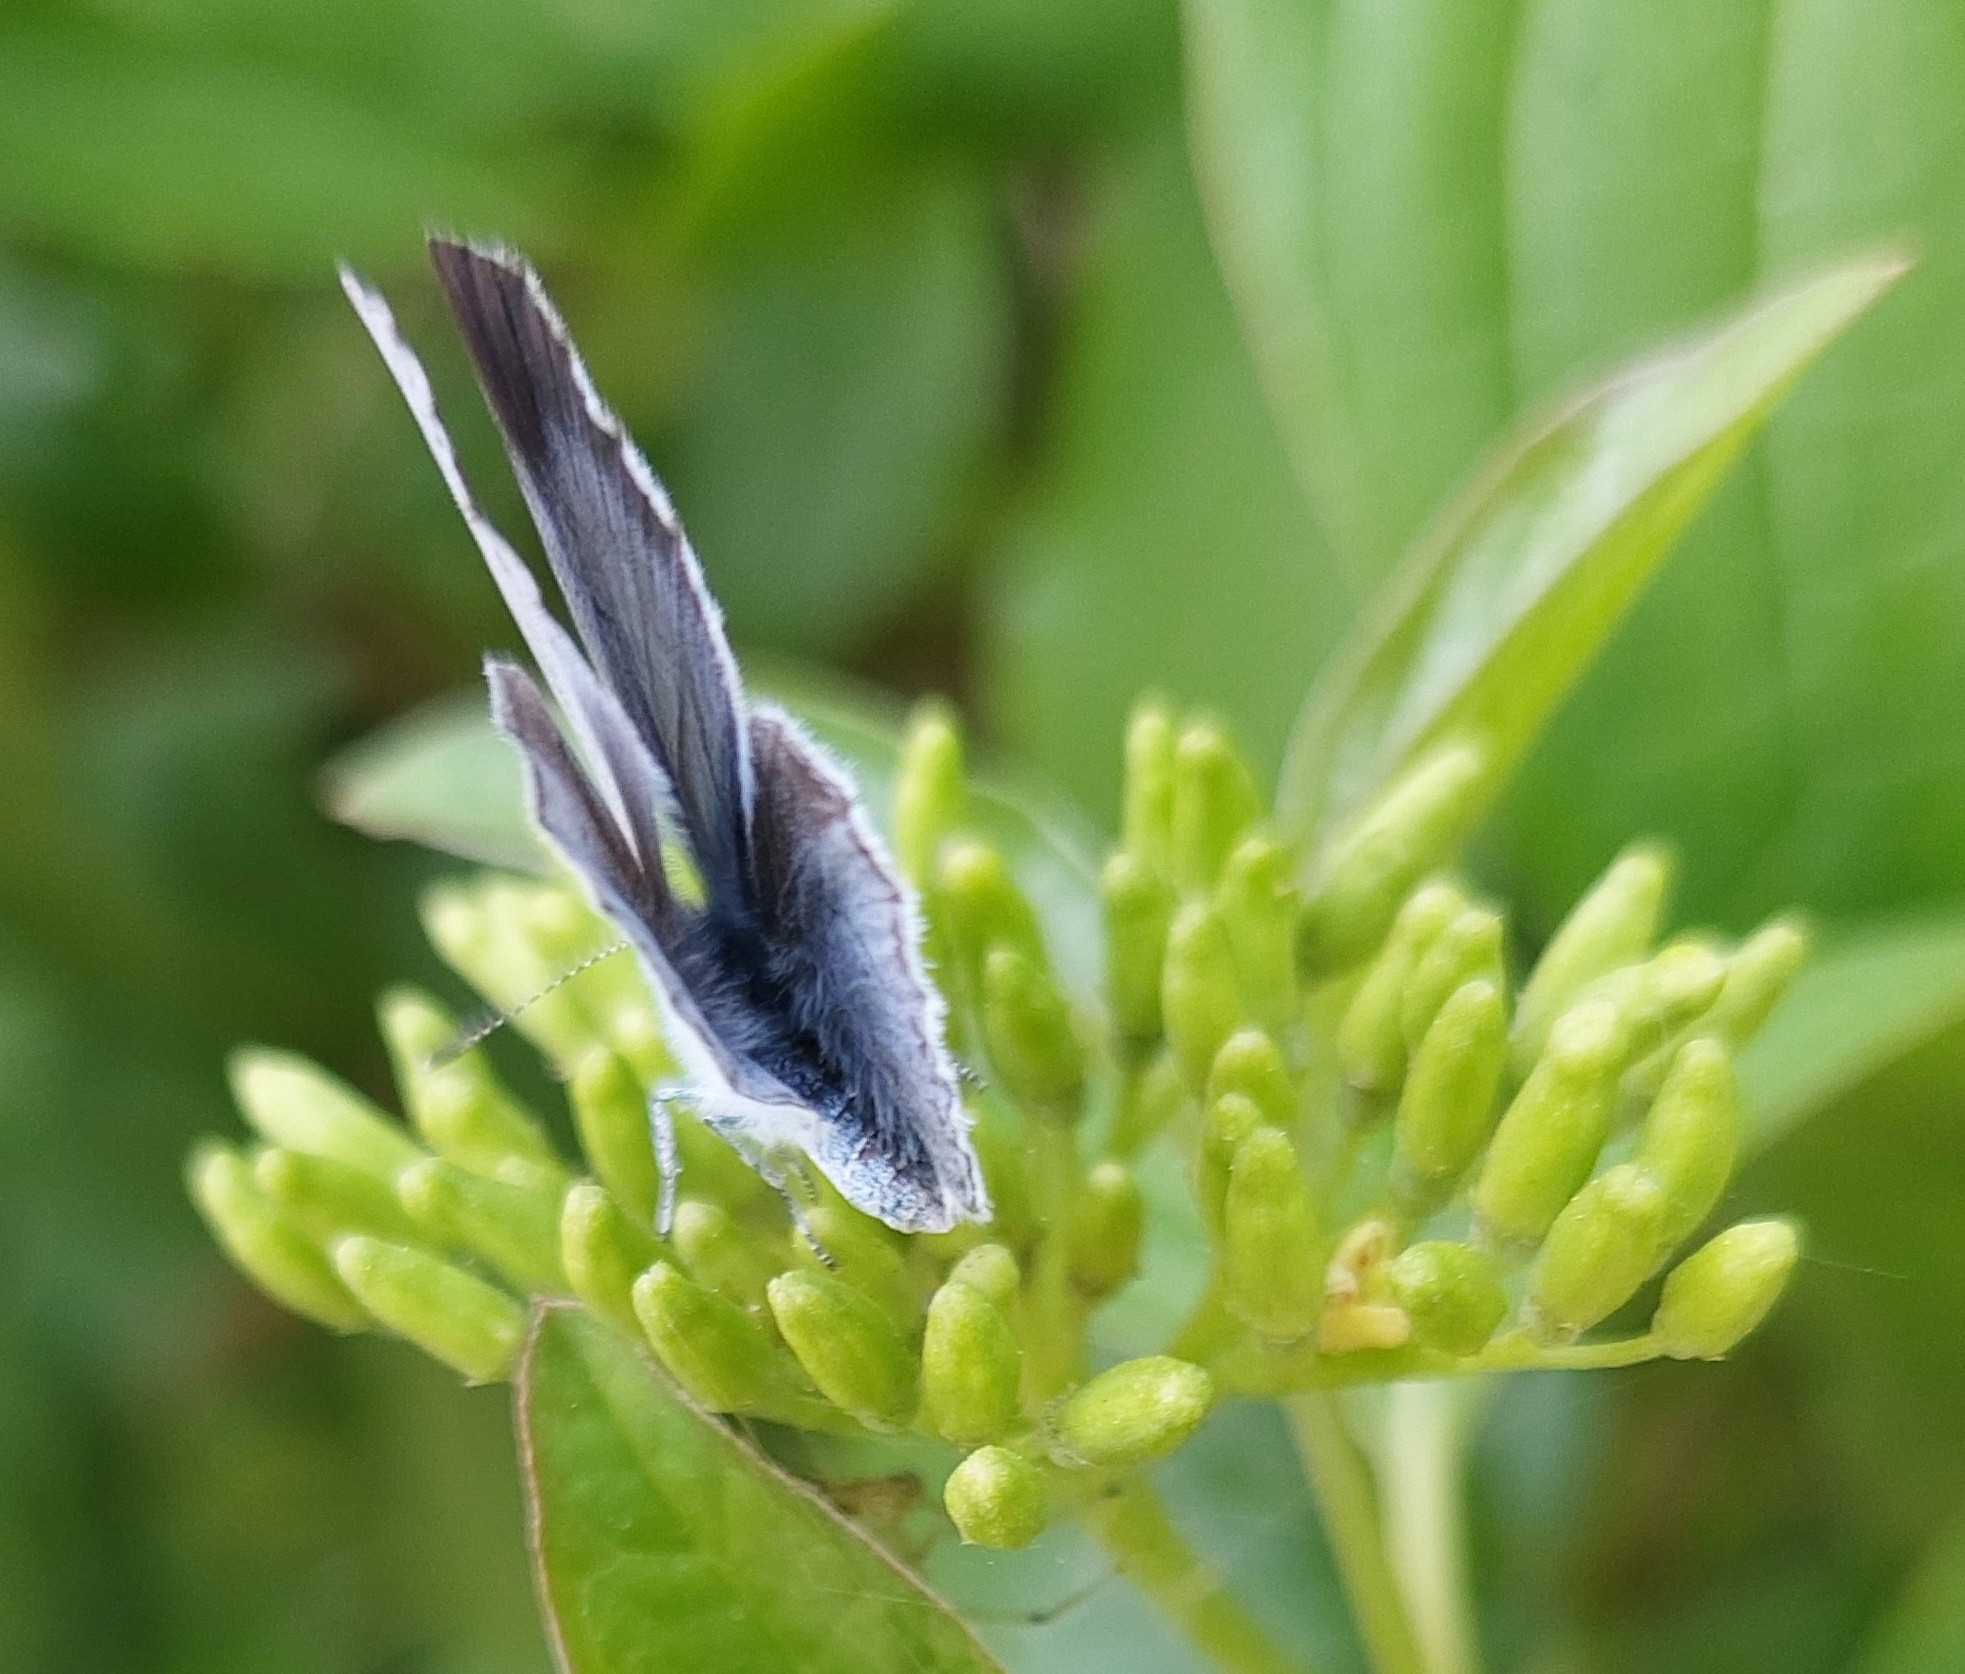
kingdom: Animalia
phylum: Arthropoda
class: Insecta
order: Lepidoptera
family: Lycaenidae
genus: Celastrina
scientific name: Celastrina argiolus
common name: Holly blue
